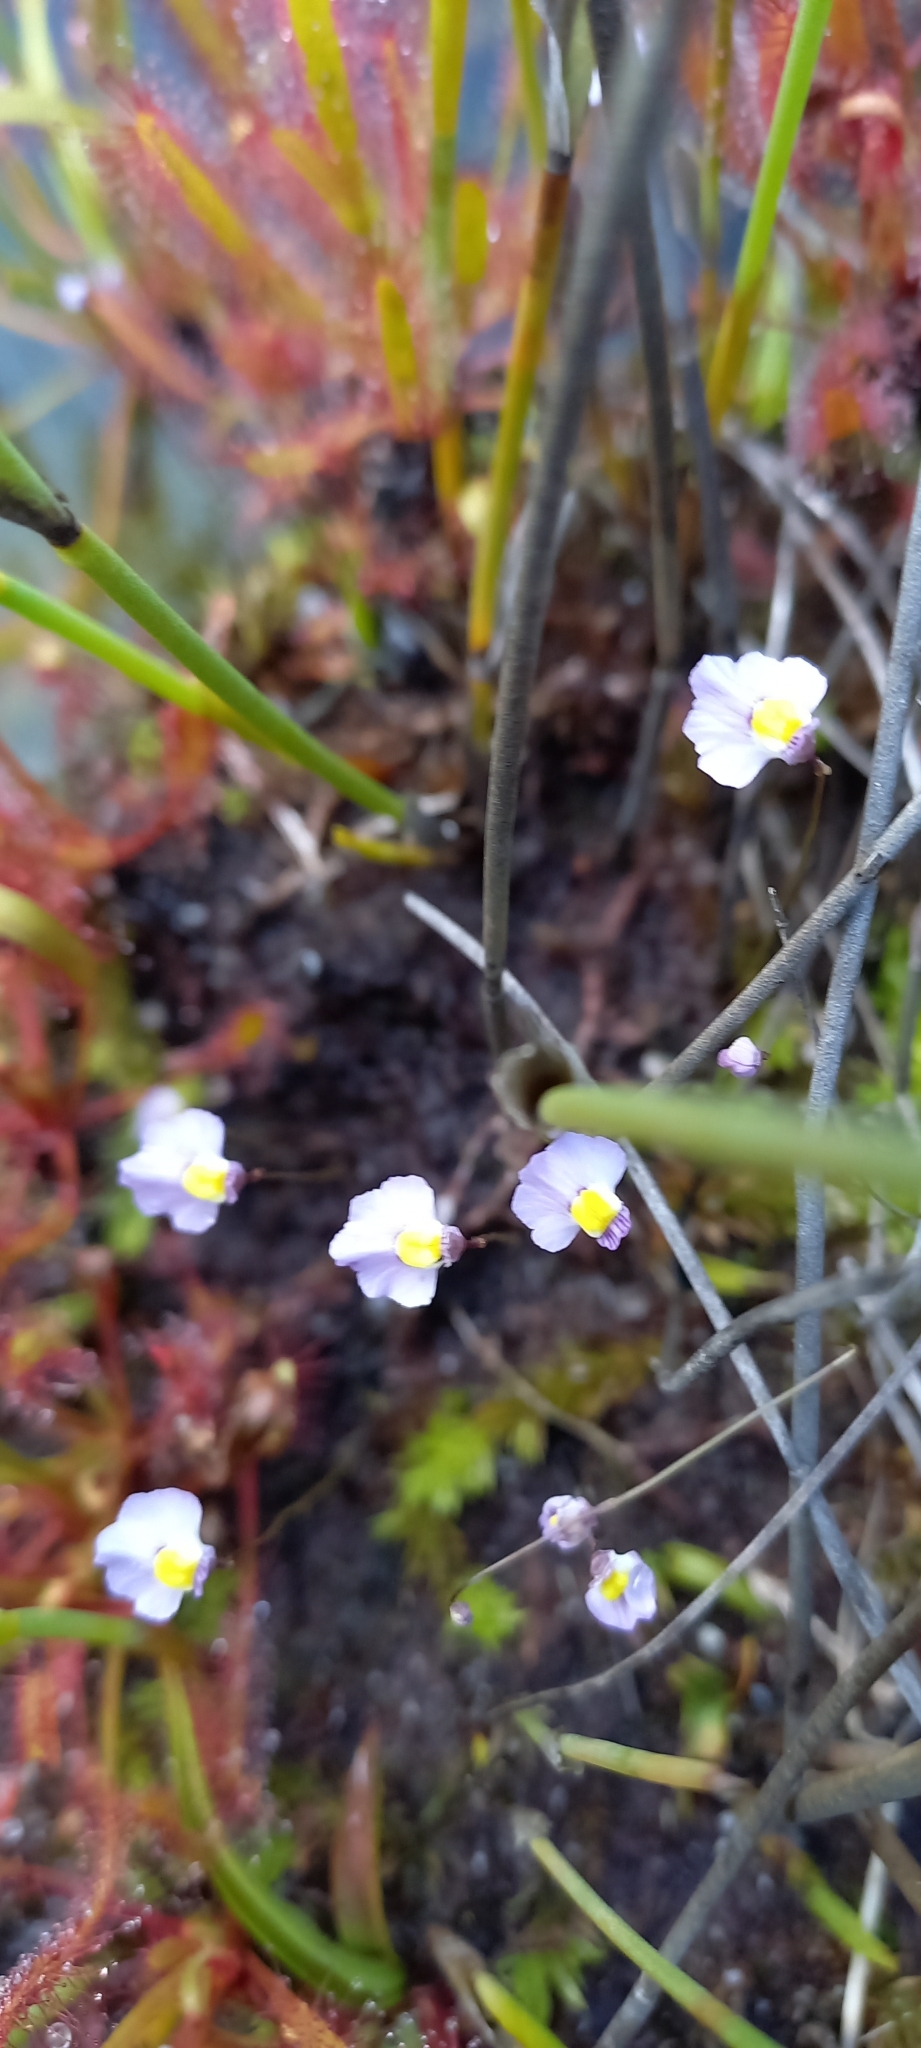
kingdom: Plantae
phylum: Tracheophyta
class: Magnoliopsida
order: Lamiales
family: Lentibulariaceae
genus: Utricularia
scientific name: Utricularia bisquamata
